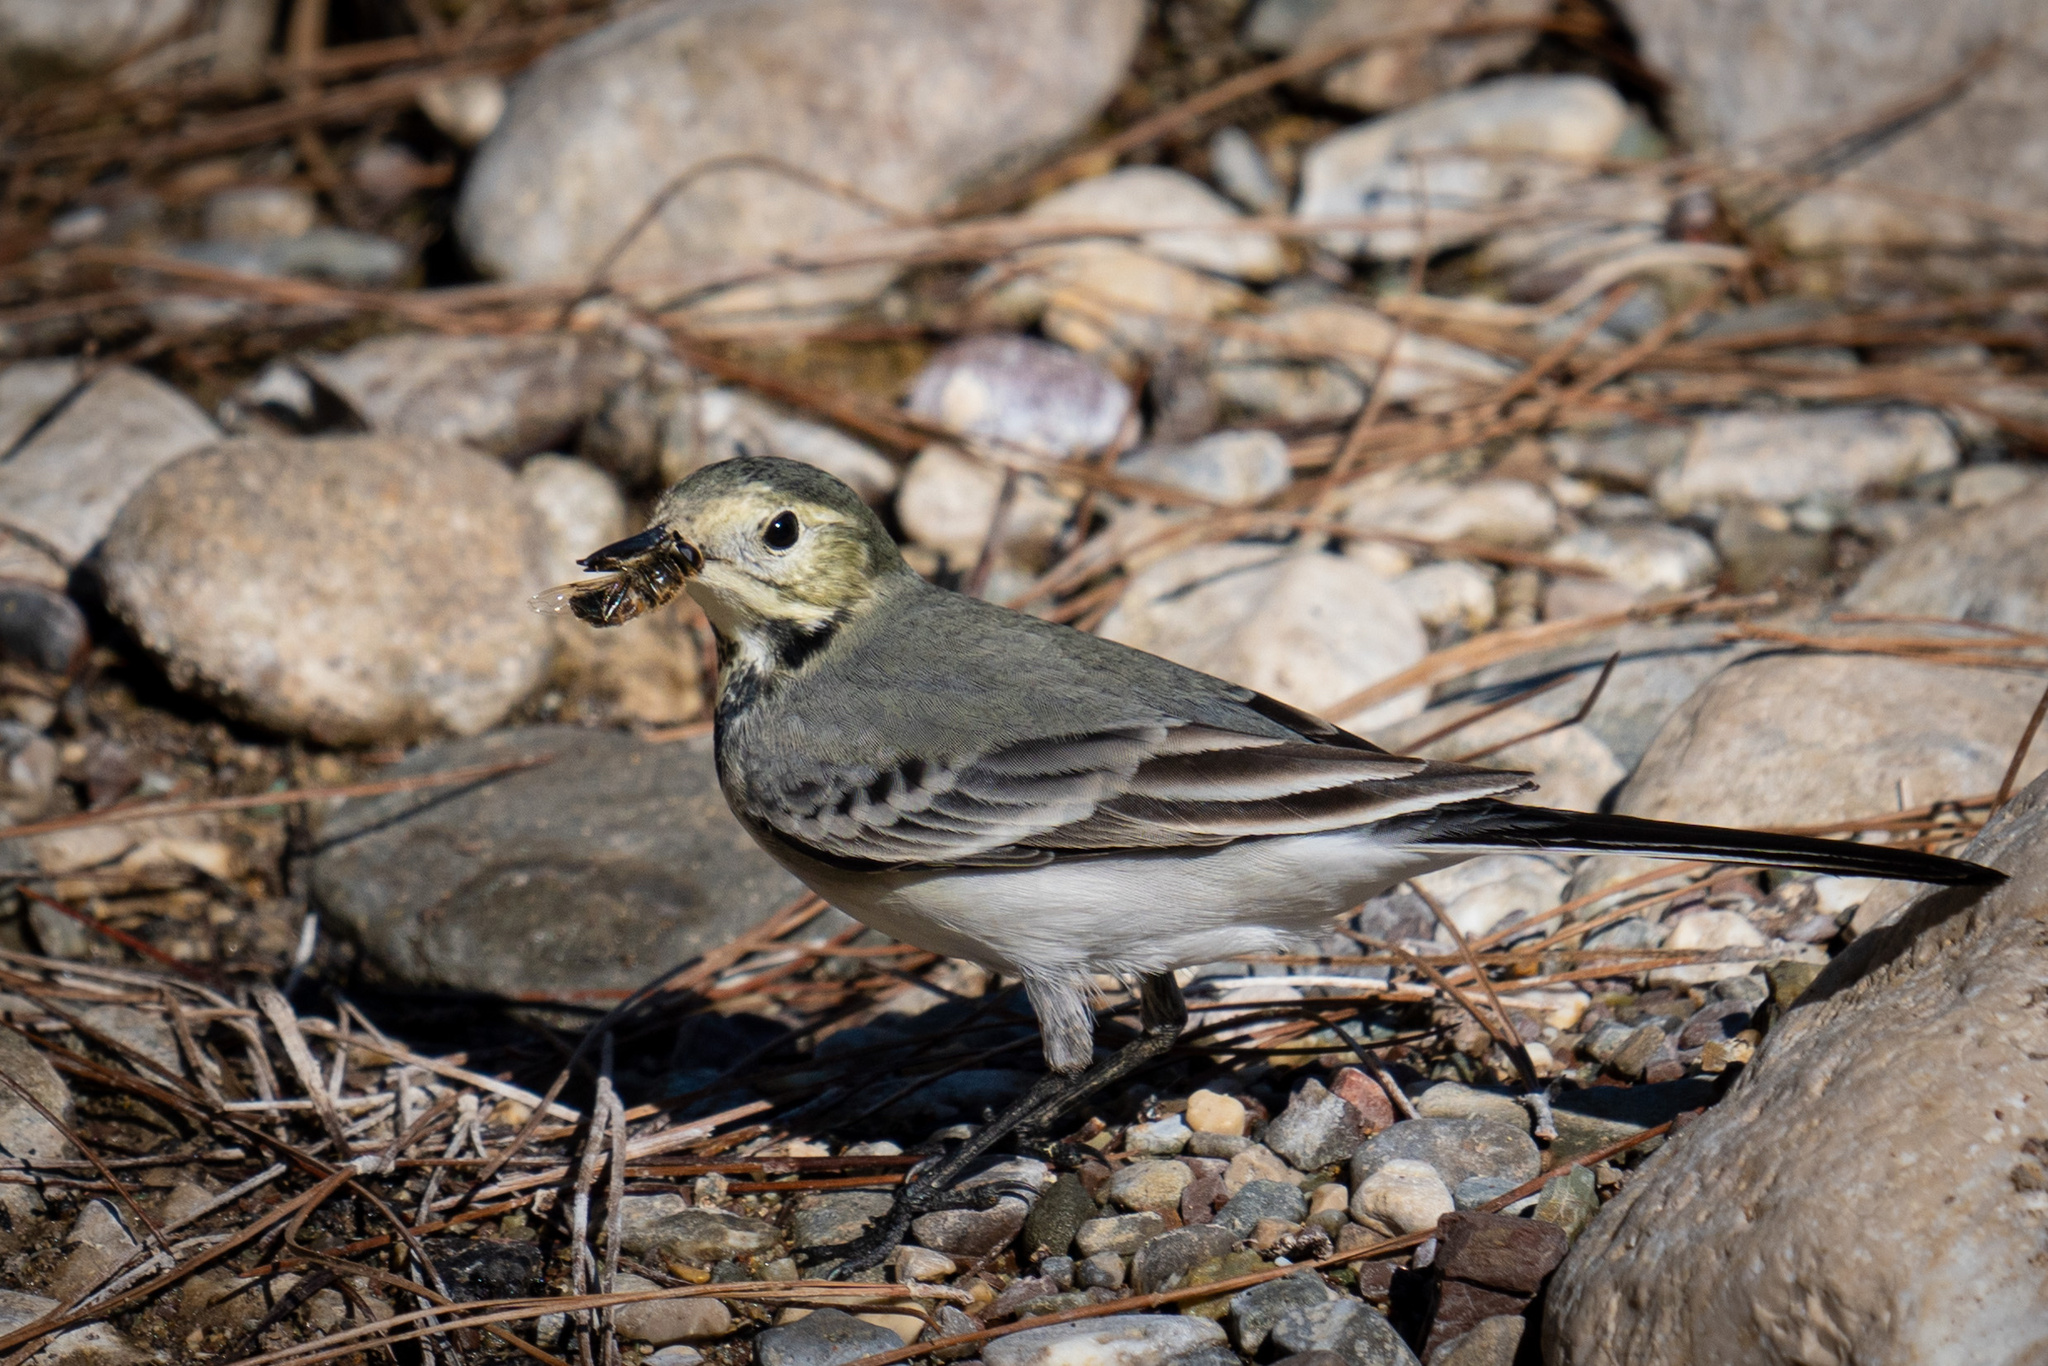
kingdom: Animalia
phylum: Chordata
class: Aves
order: Passeriformes
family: Motacillidae
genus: Motacilla
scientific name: Motacilla alba
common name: White wagtail
